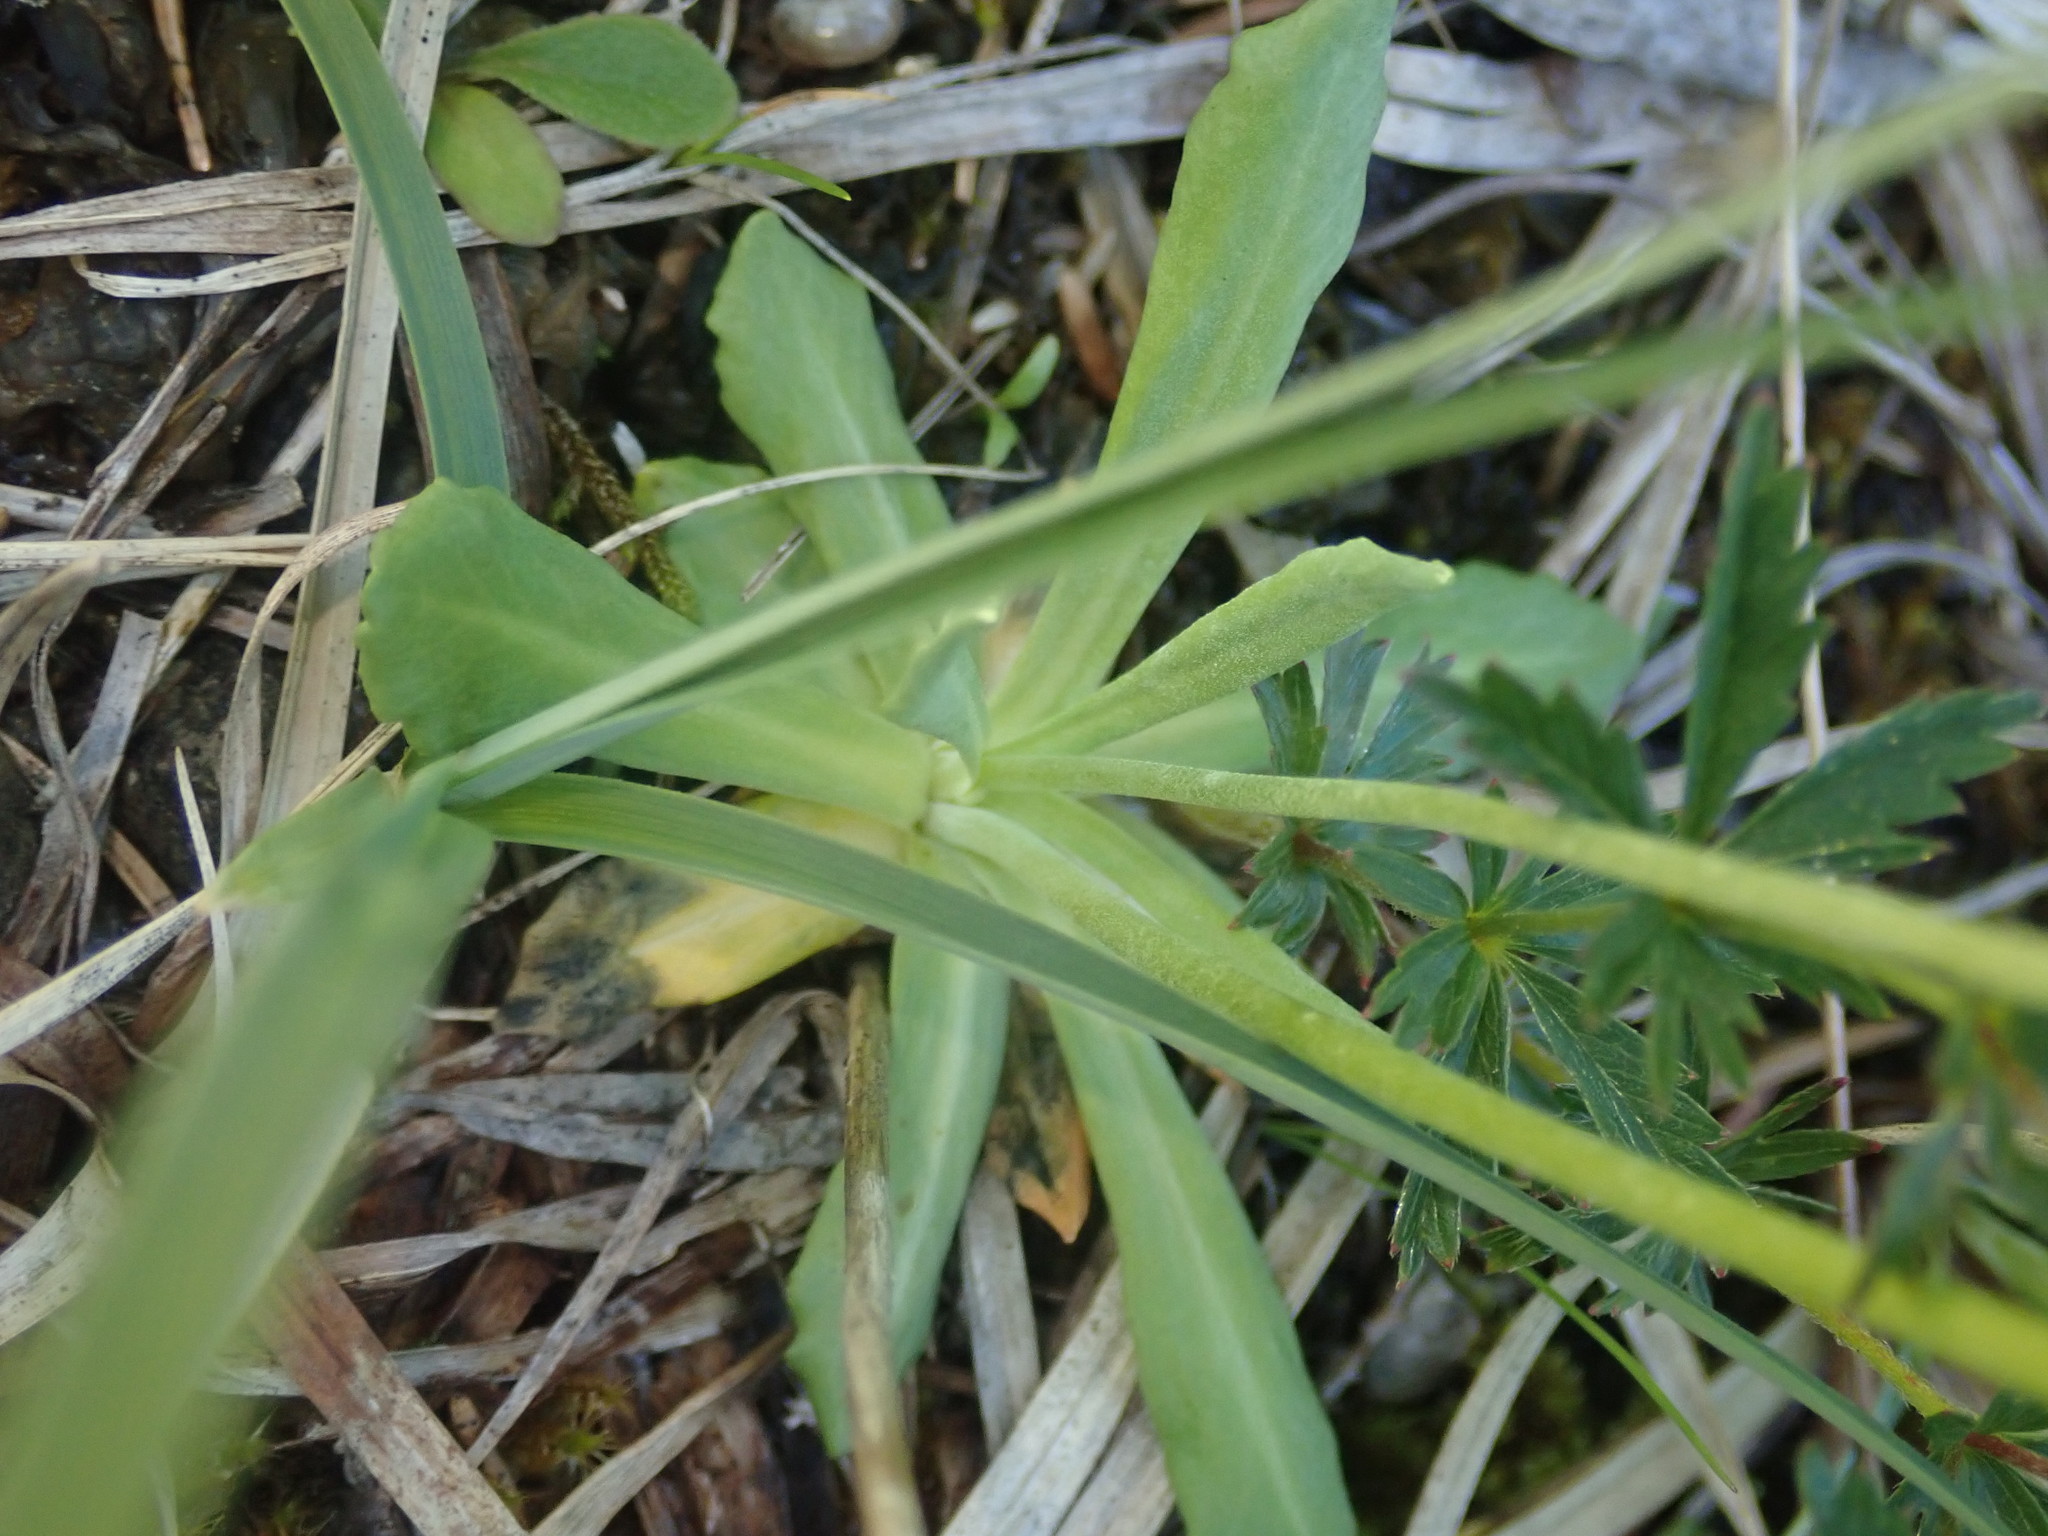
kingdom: Plantae
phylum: Tracheophyta
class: Magnoliopsida
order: Ericales
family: Primulaceae
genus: Primula
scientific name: Primula farinosa
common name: Bird's-eye primrose
